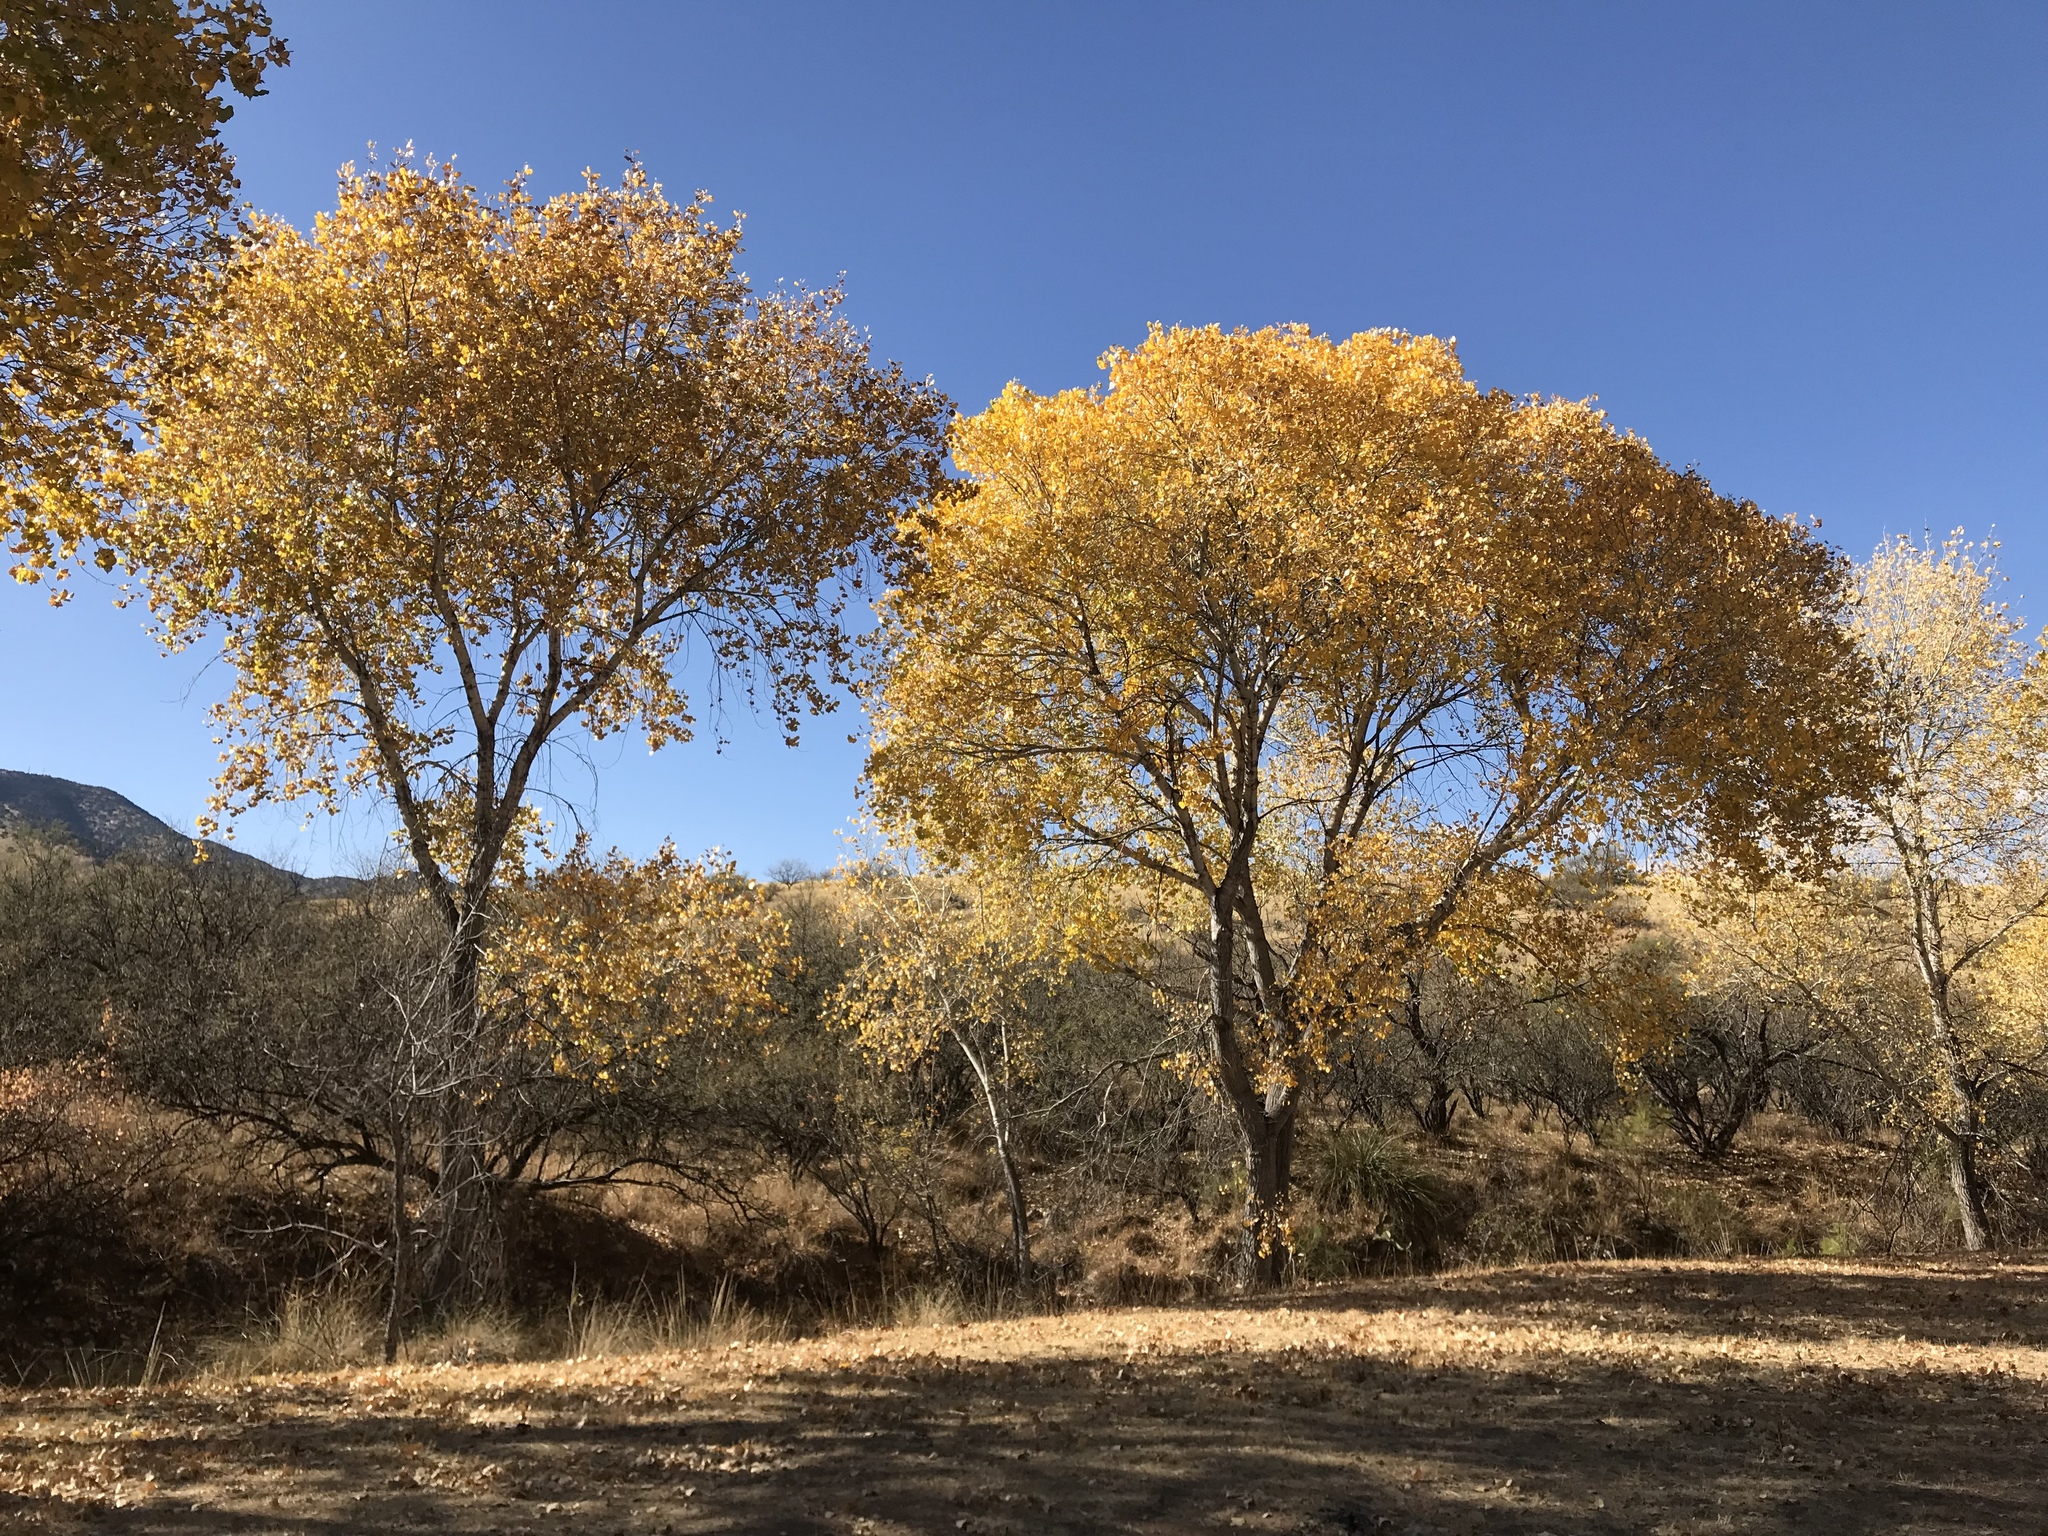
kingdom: Plantae
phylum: Tracheophyta
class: Magnoliopsida
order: Malpighiales
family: Salicaceae
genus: Populus
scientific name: Populus fremontii
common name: Fremont's cottonwood
